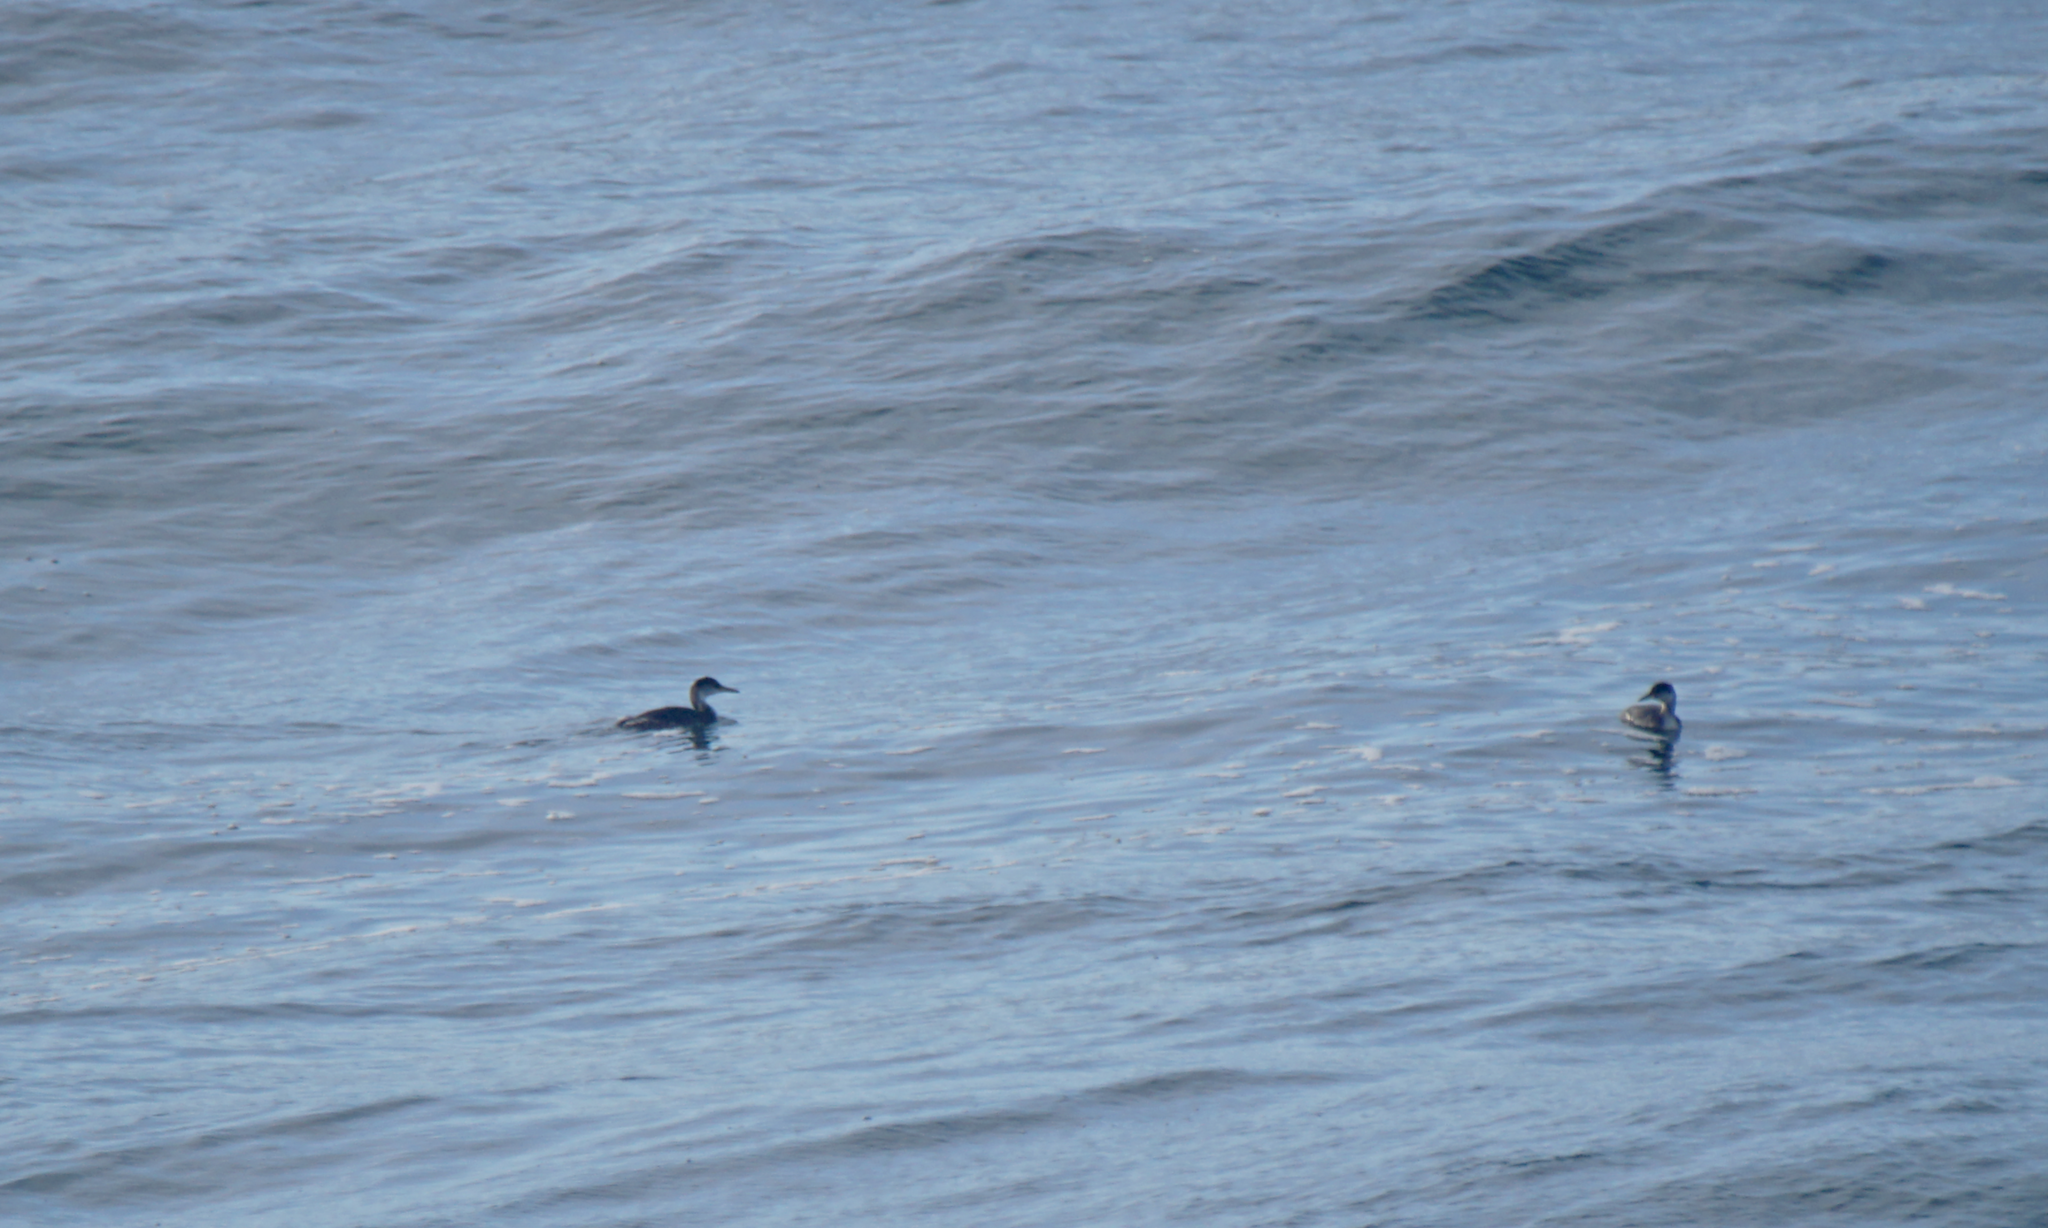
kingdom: Animalia
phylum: Chordata
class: Aves
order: Podicipediformes
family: Podicipedidae
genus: Podiceps
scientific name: Podiceps grisegena
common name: Red-necked grebe
